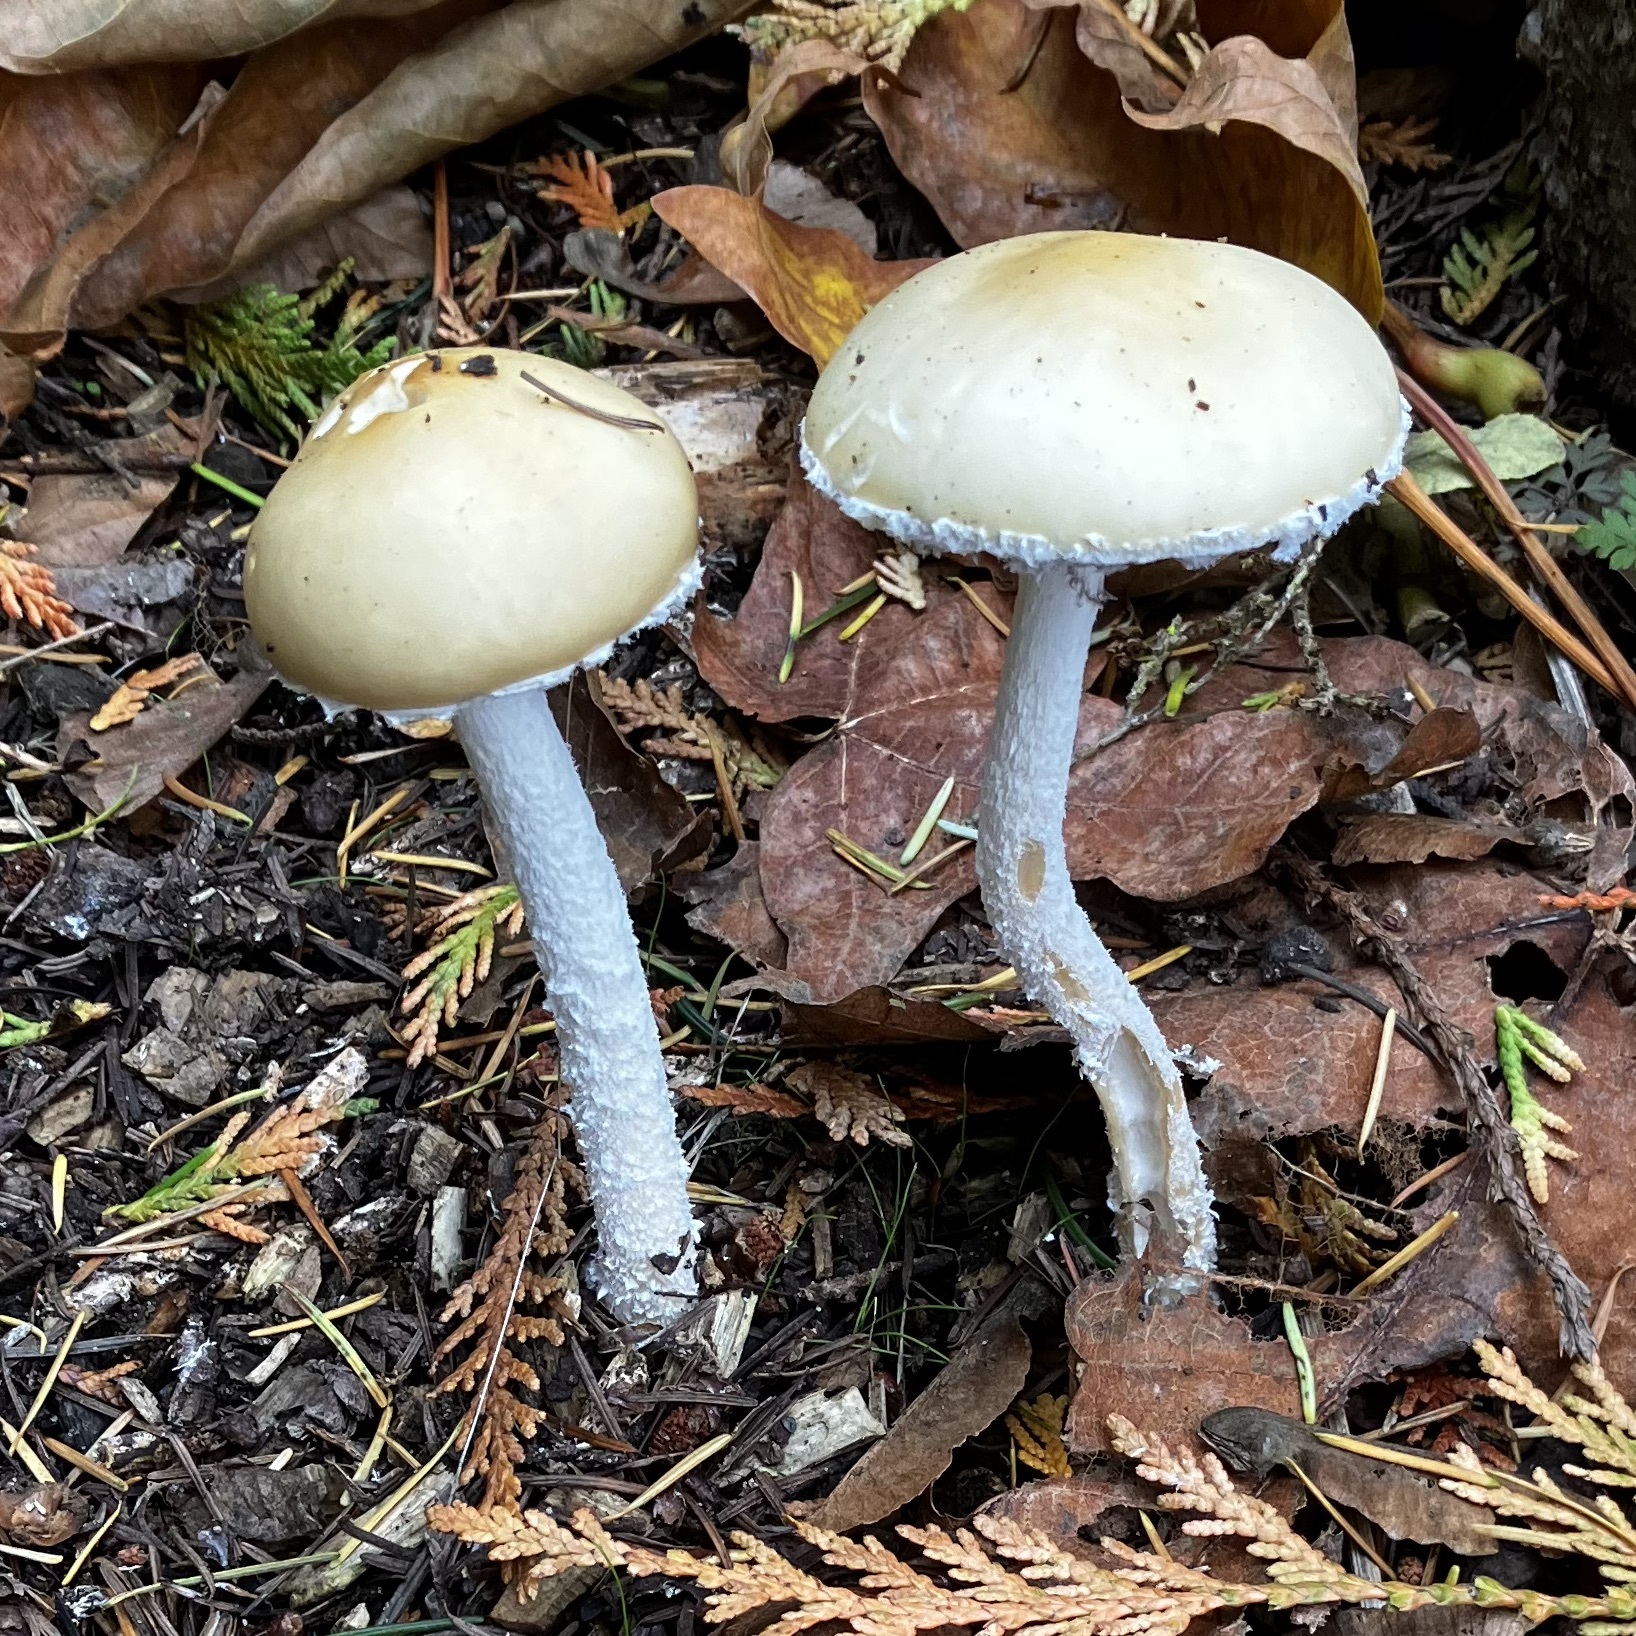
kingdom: Fungi
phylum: Basidiomycota
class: Agaricomycetes
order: Agaricales
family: Strophariaceae
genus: Stropharia
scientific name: Stropharia ambigua
